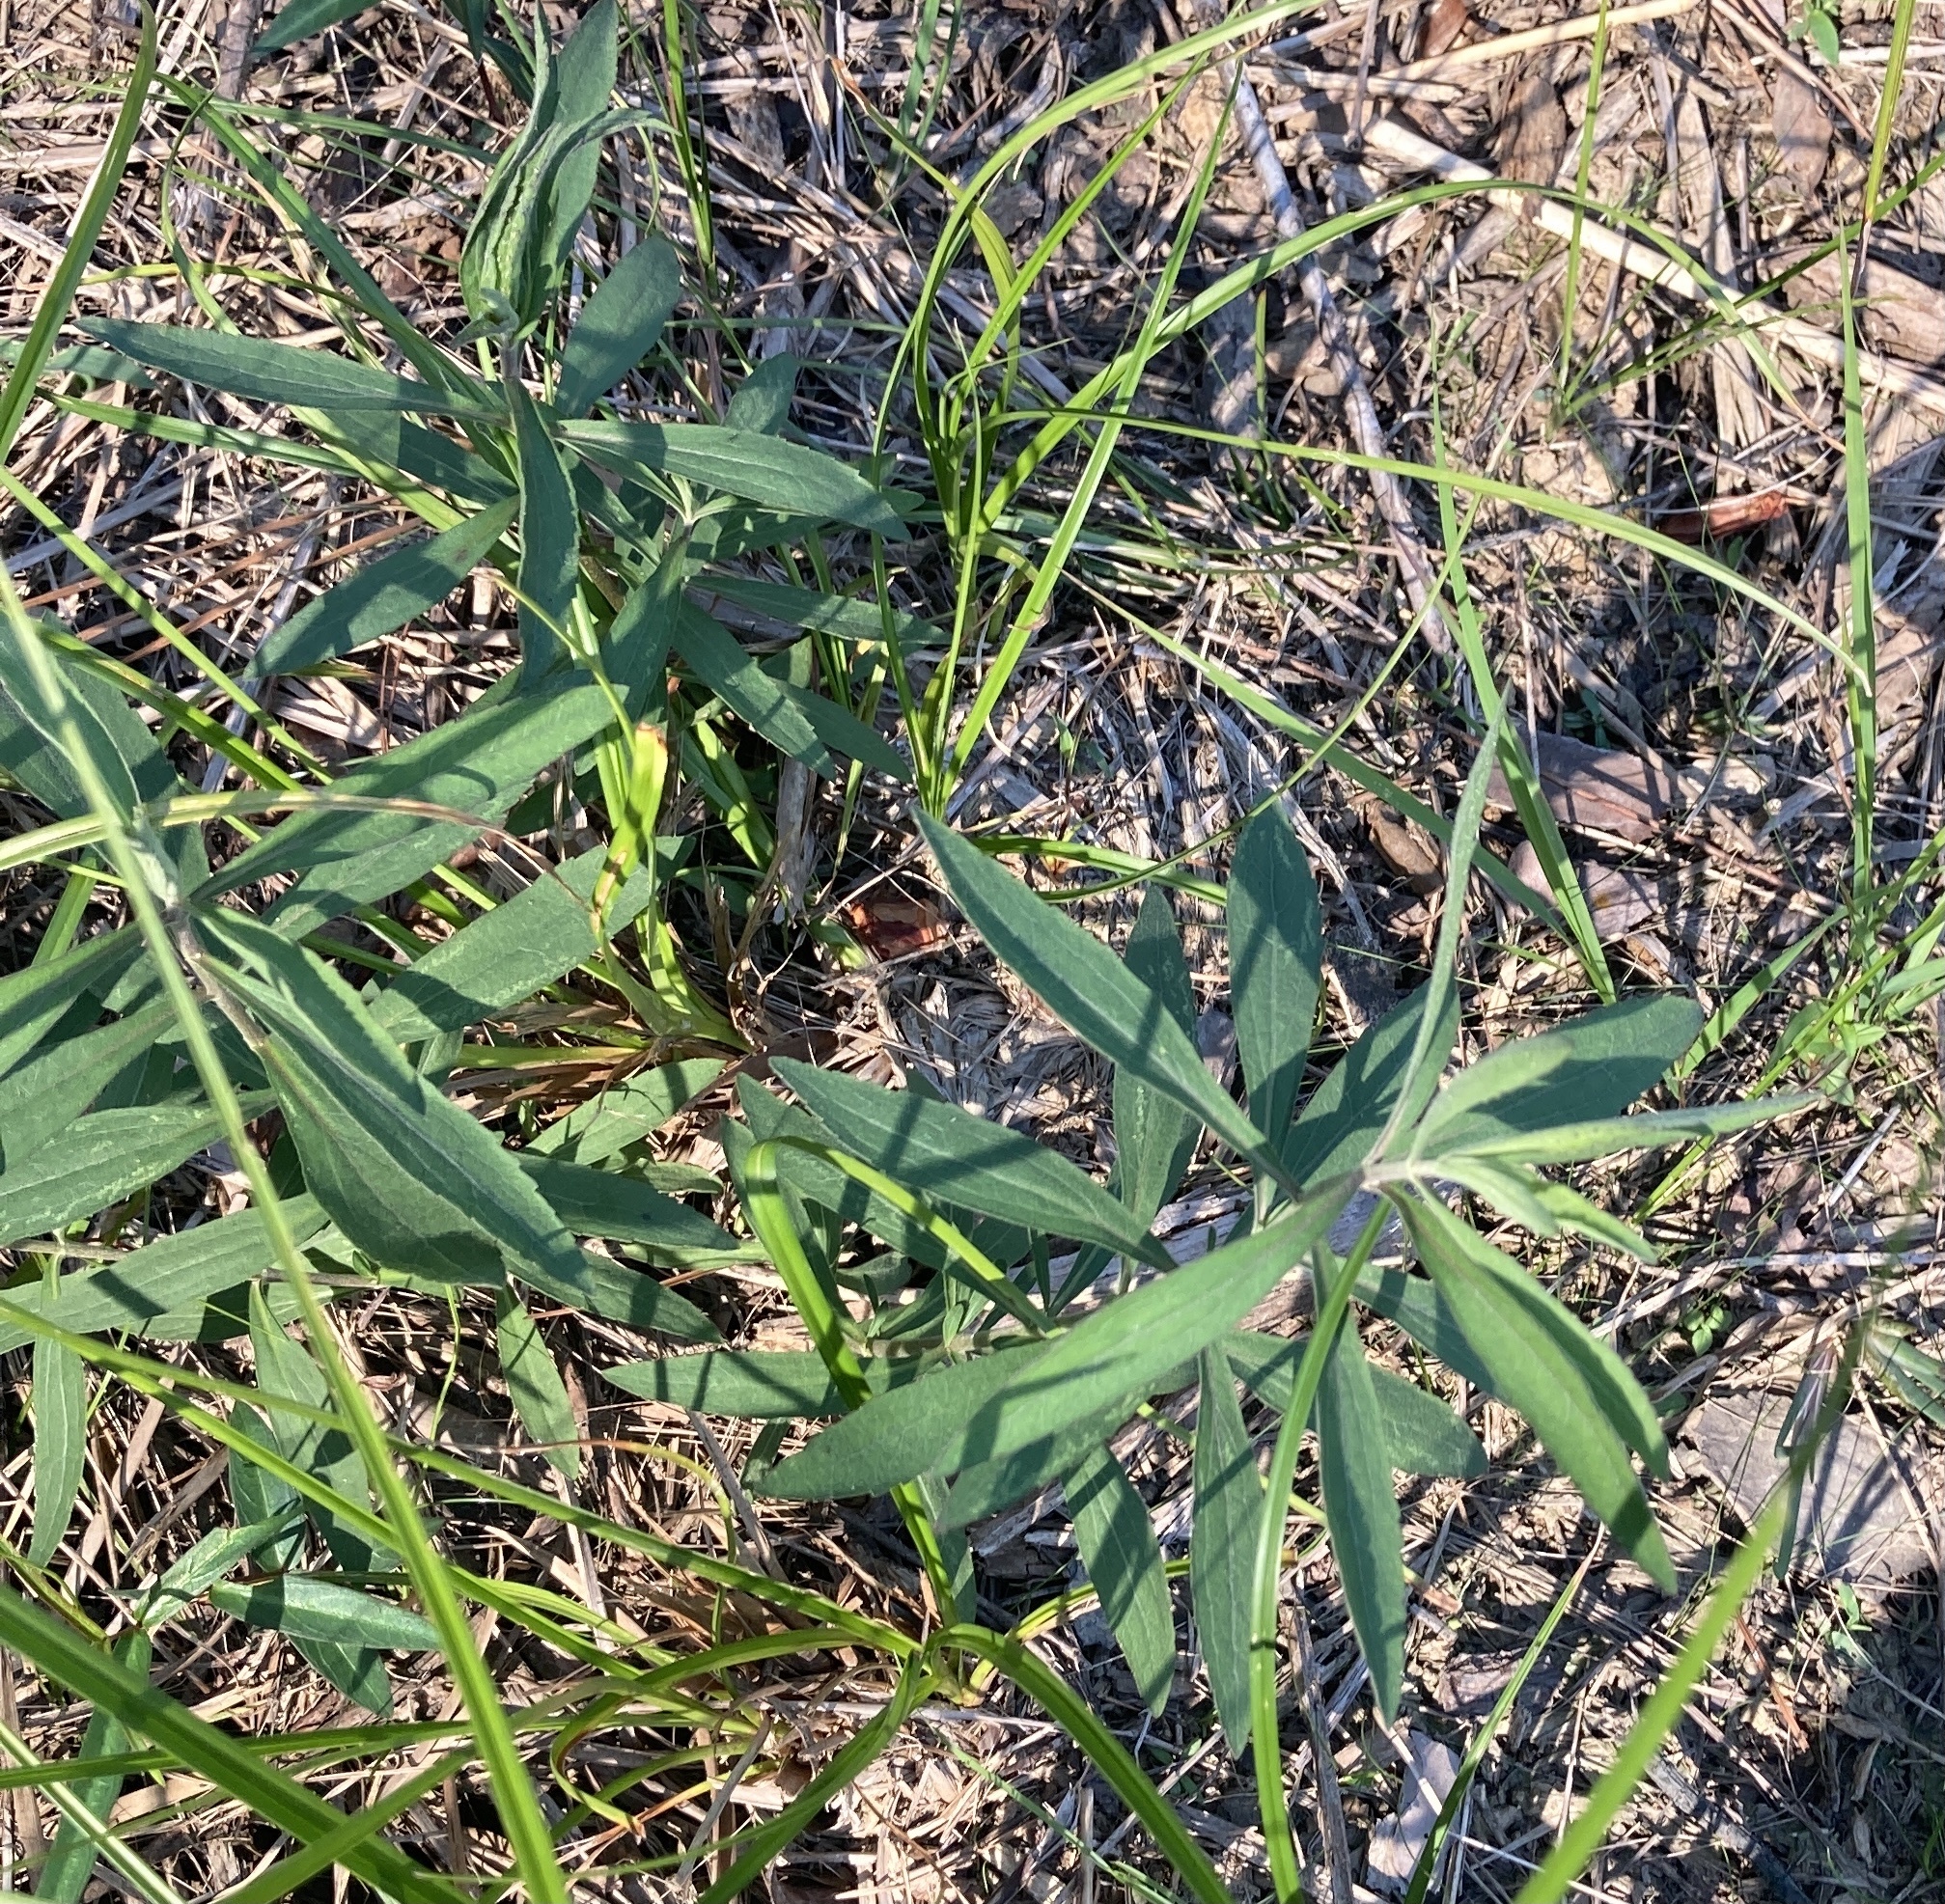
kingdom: Plantae
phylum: Tracheophyta
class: Magnoliopsida
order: Asterales
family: Asteraceae
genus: Eupatorium
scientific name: Eupatorium altissimum
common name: Tall thoroughwort
